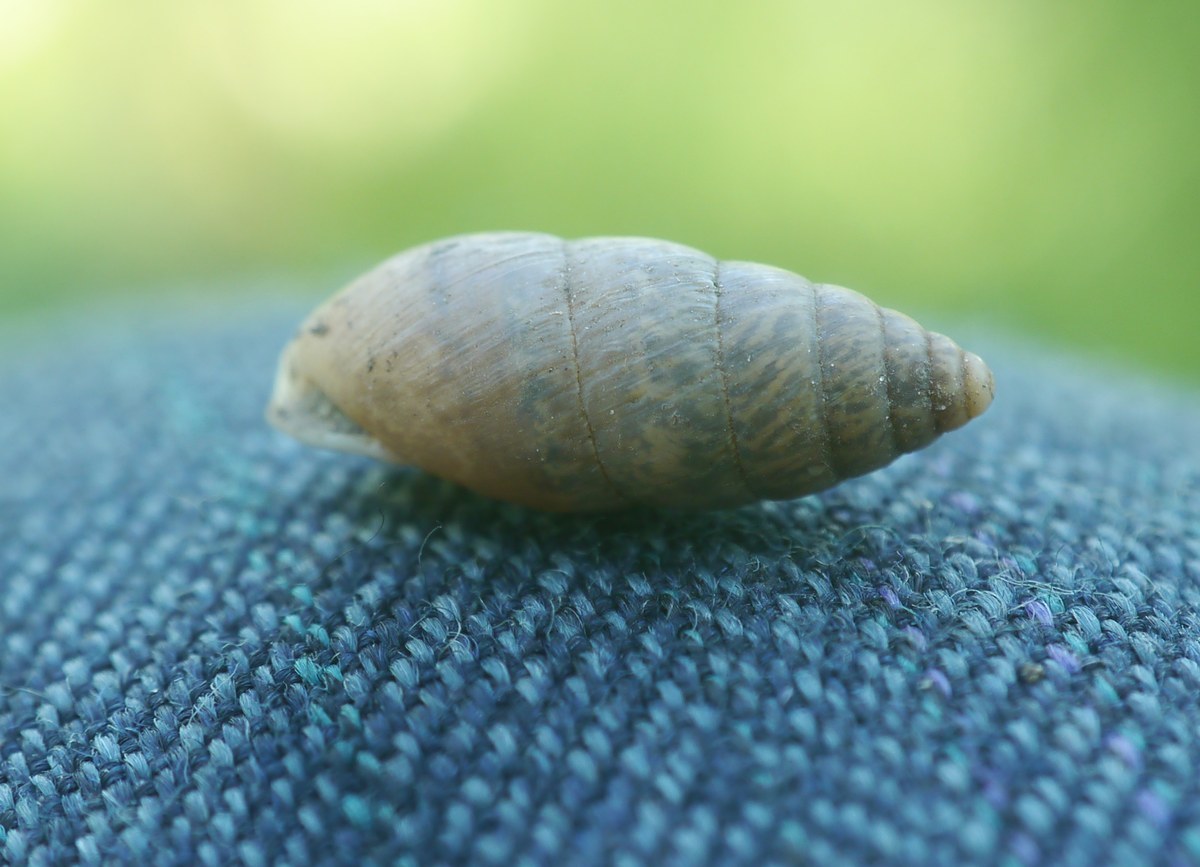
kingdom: Animalia
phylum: Mollusca
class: Gastropoda
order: Stylommatophora
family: Enidae
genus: Chondrula
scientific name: Chondrula tridens
